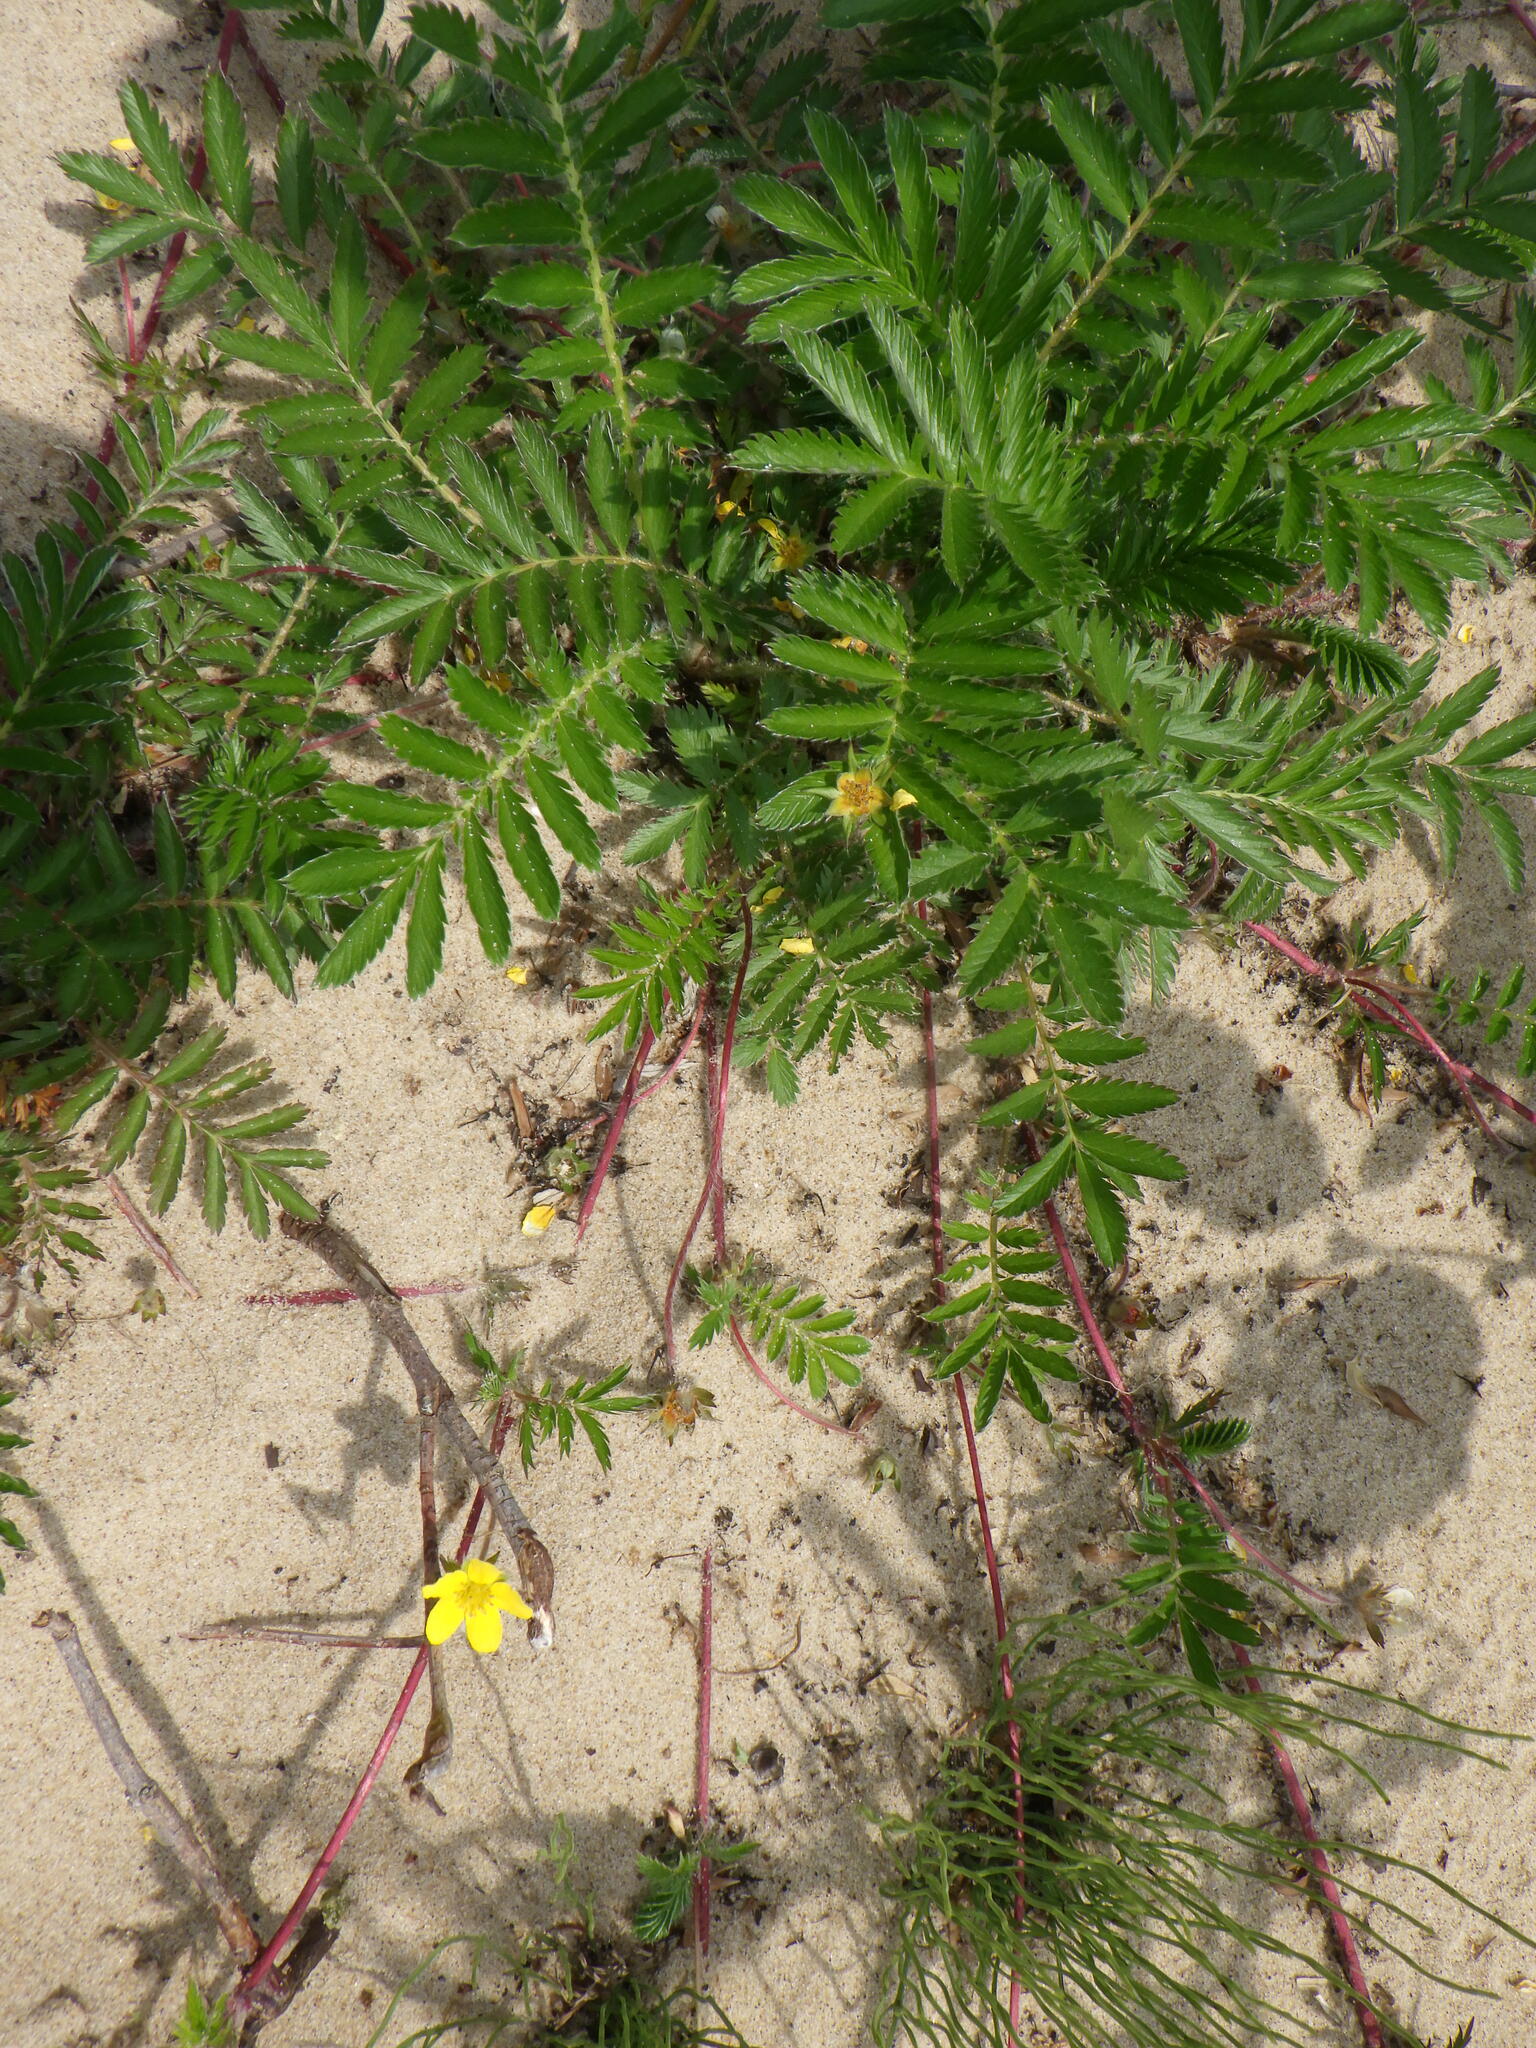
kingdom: Plantae
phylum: Tracheophyta
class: Magnoliopsida
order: Rosales
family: Rosaceae
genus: Argentina
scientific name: Argentina anserina
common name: Common silverweed
